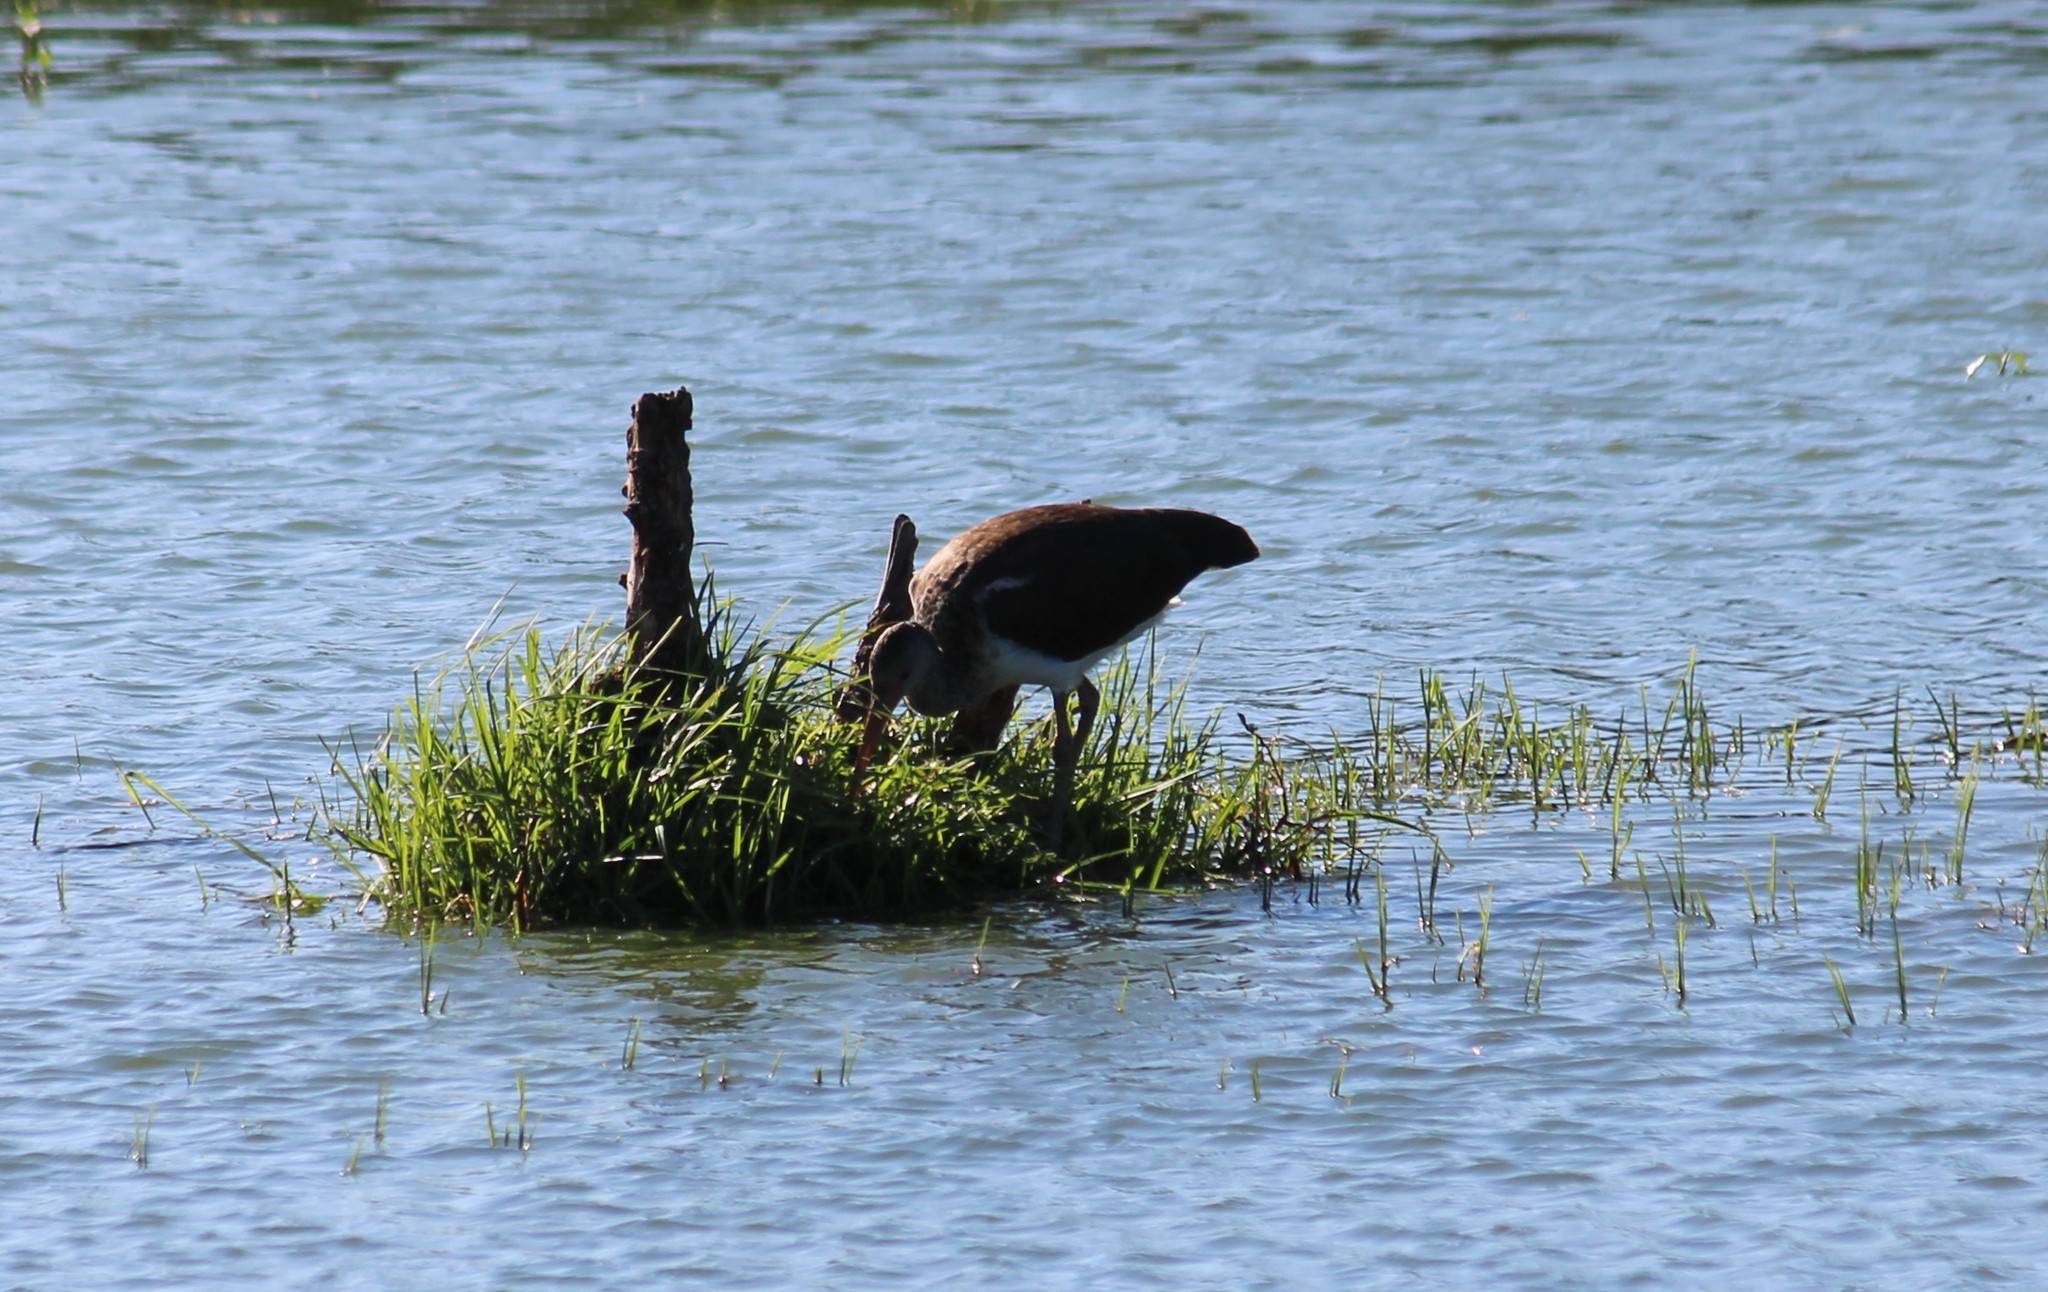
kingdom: Animalia
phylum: Chordata
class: Aves
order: Pelecaniformes
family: Threskiornithidae
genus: Eudocimus
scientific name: Eudocimus albus
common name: White ibis
